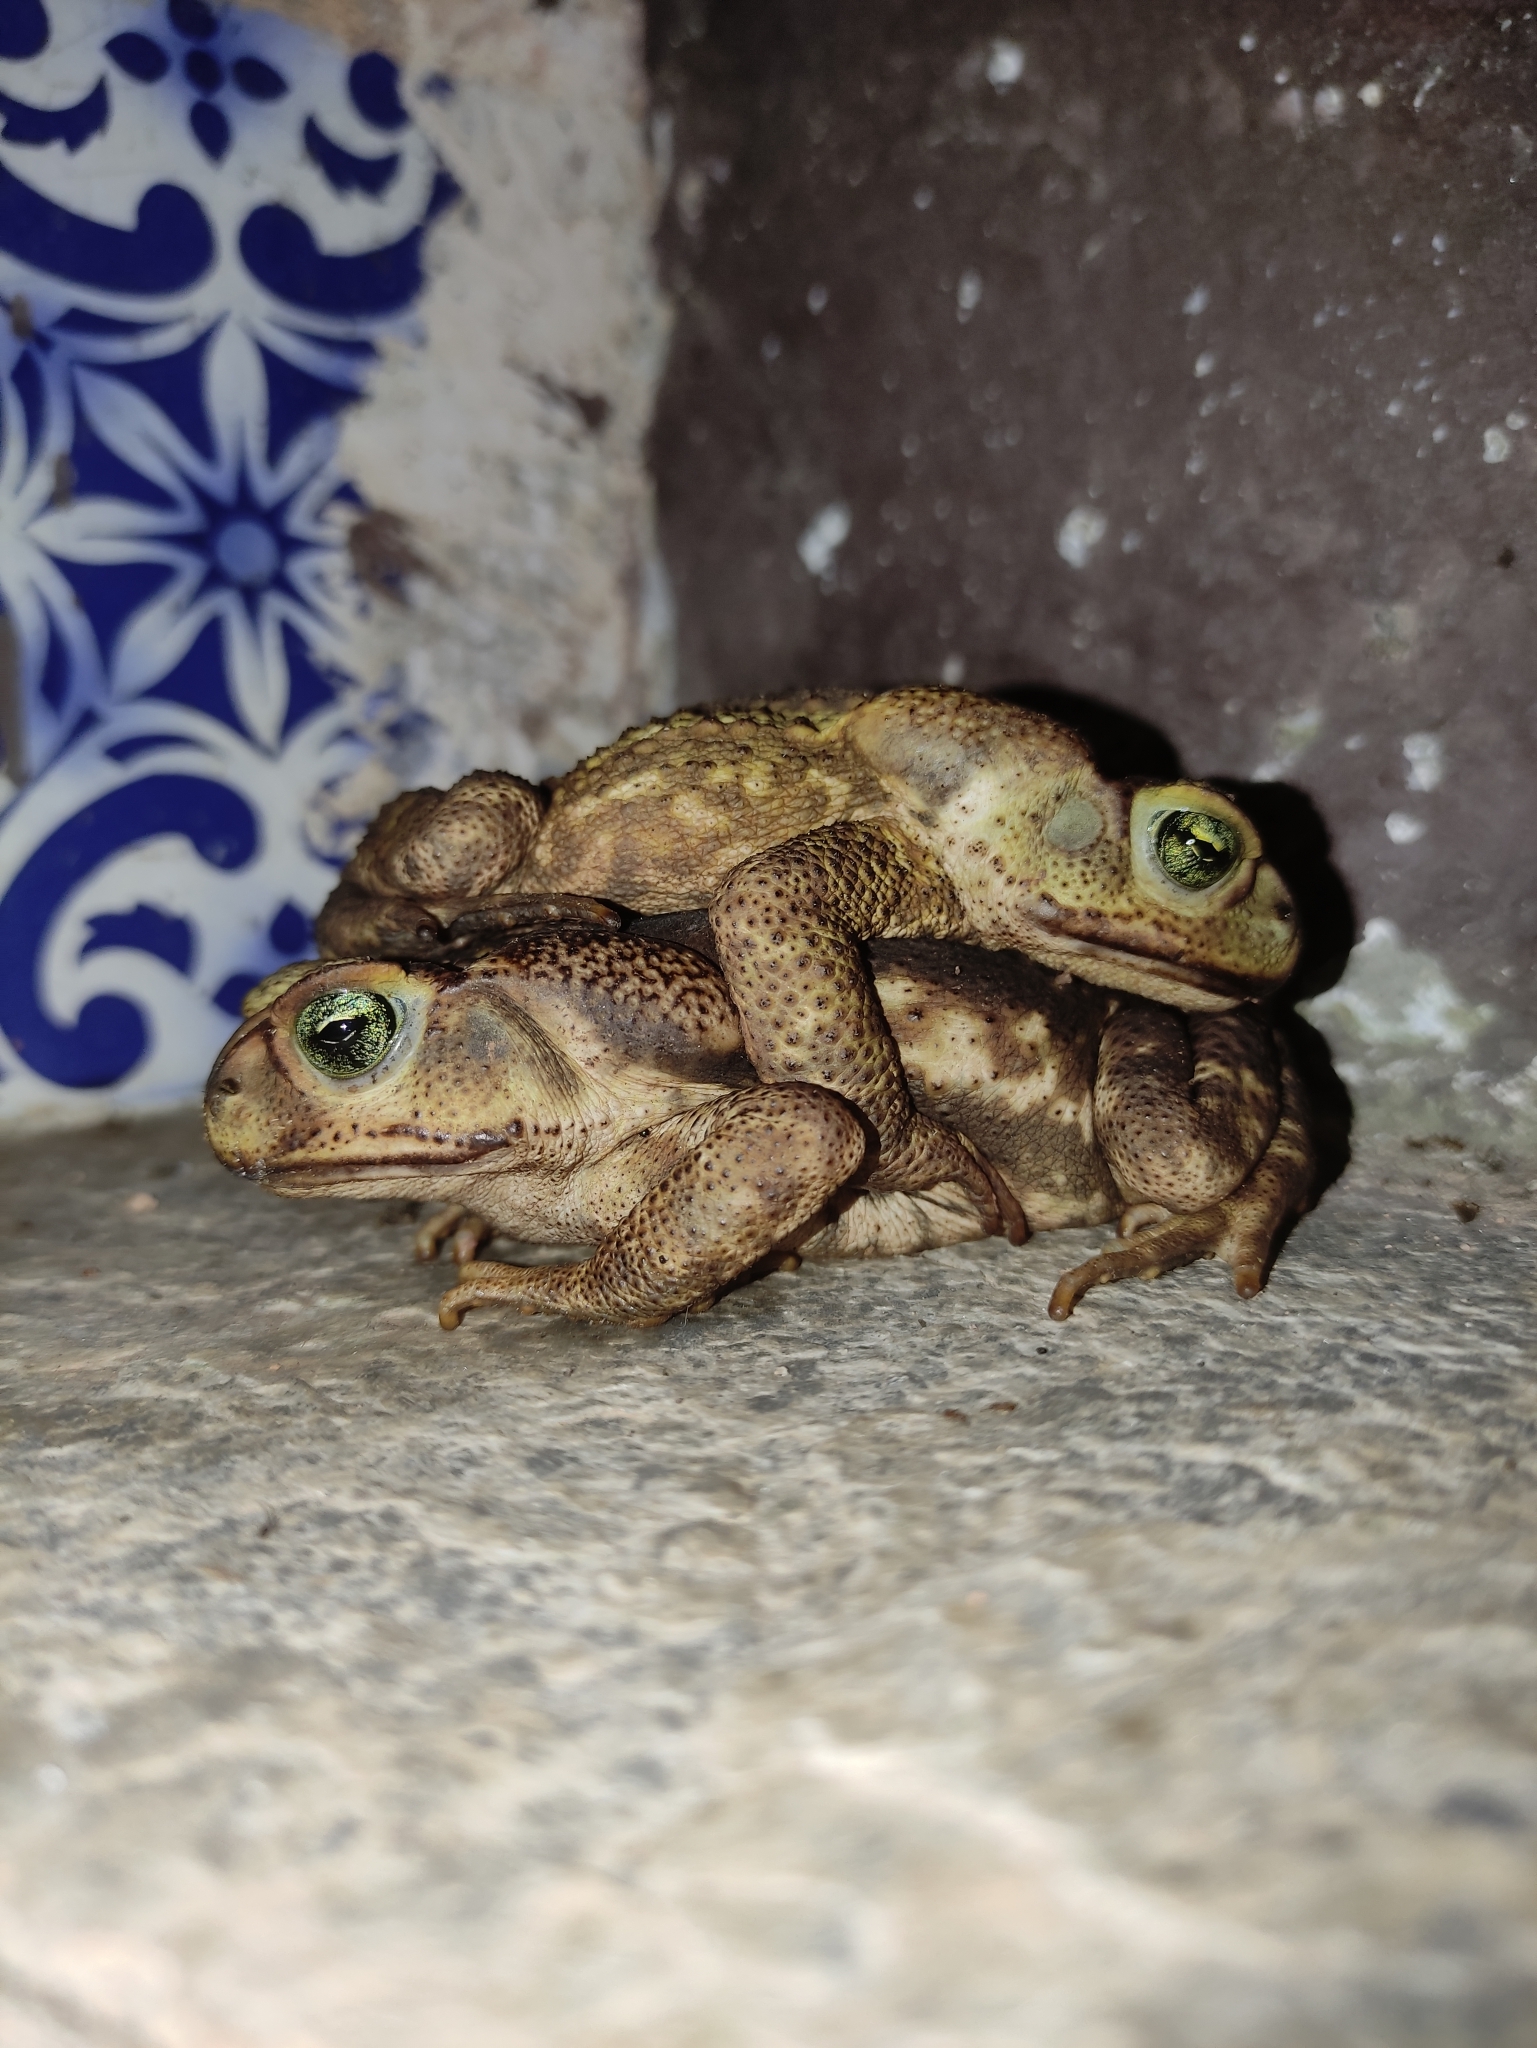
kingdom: Animalia
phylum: Chordata
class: Amphibia
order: Anura
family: Bufonidae
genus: Rhinella
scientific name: Rhinella icterica
